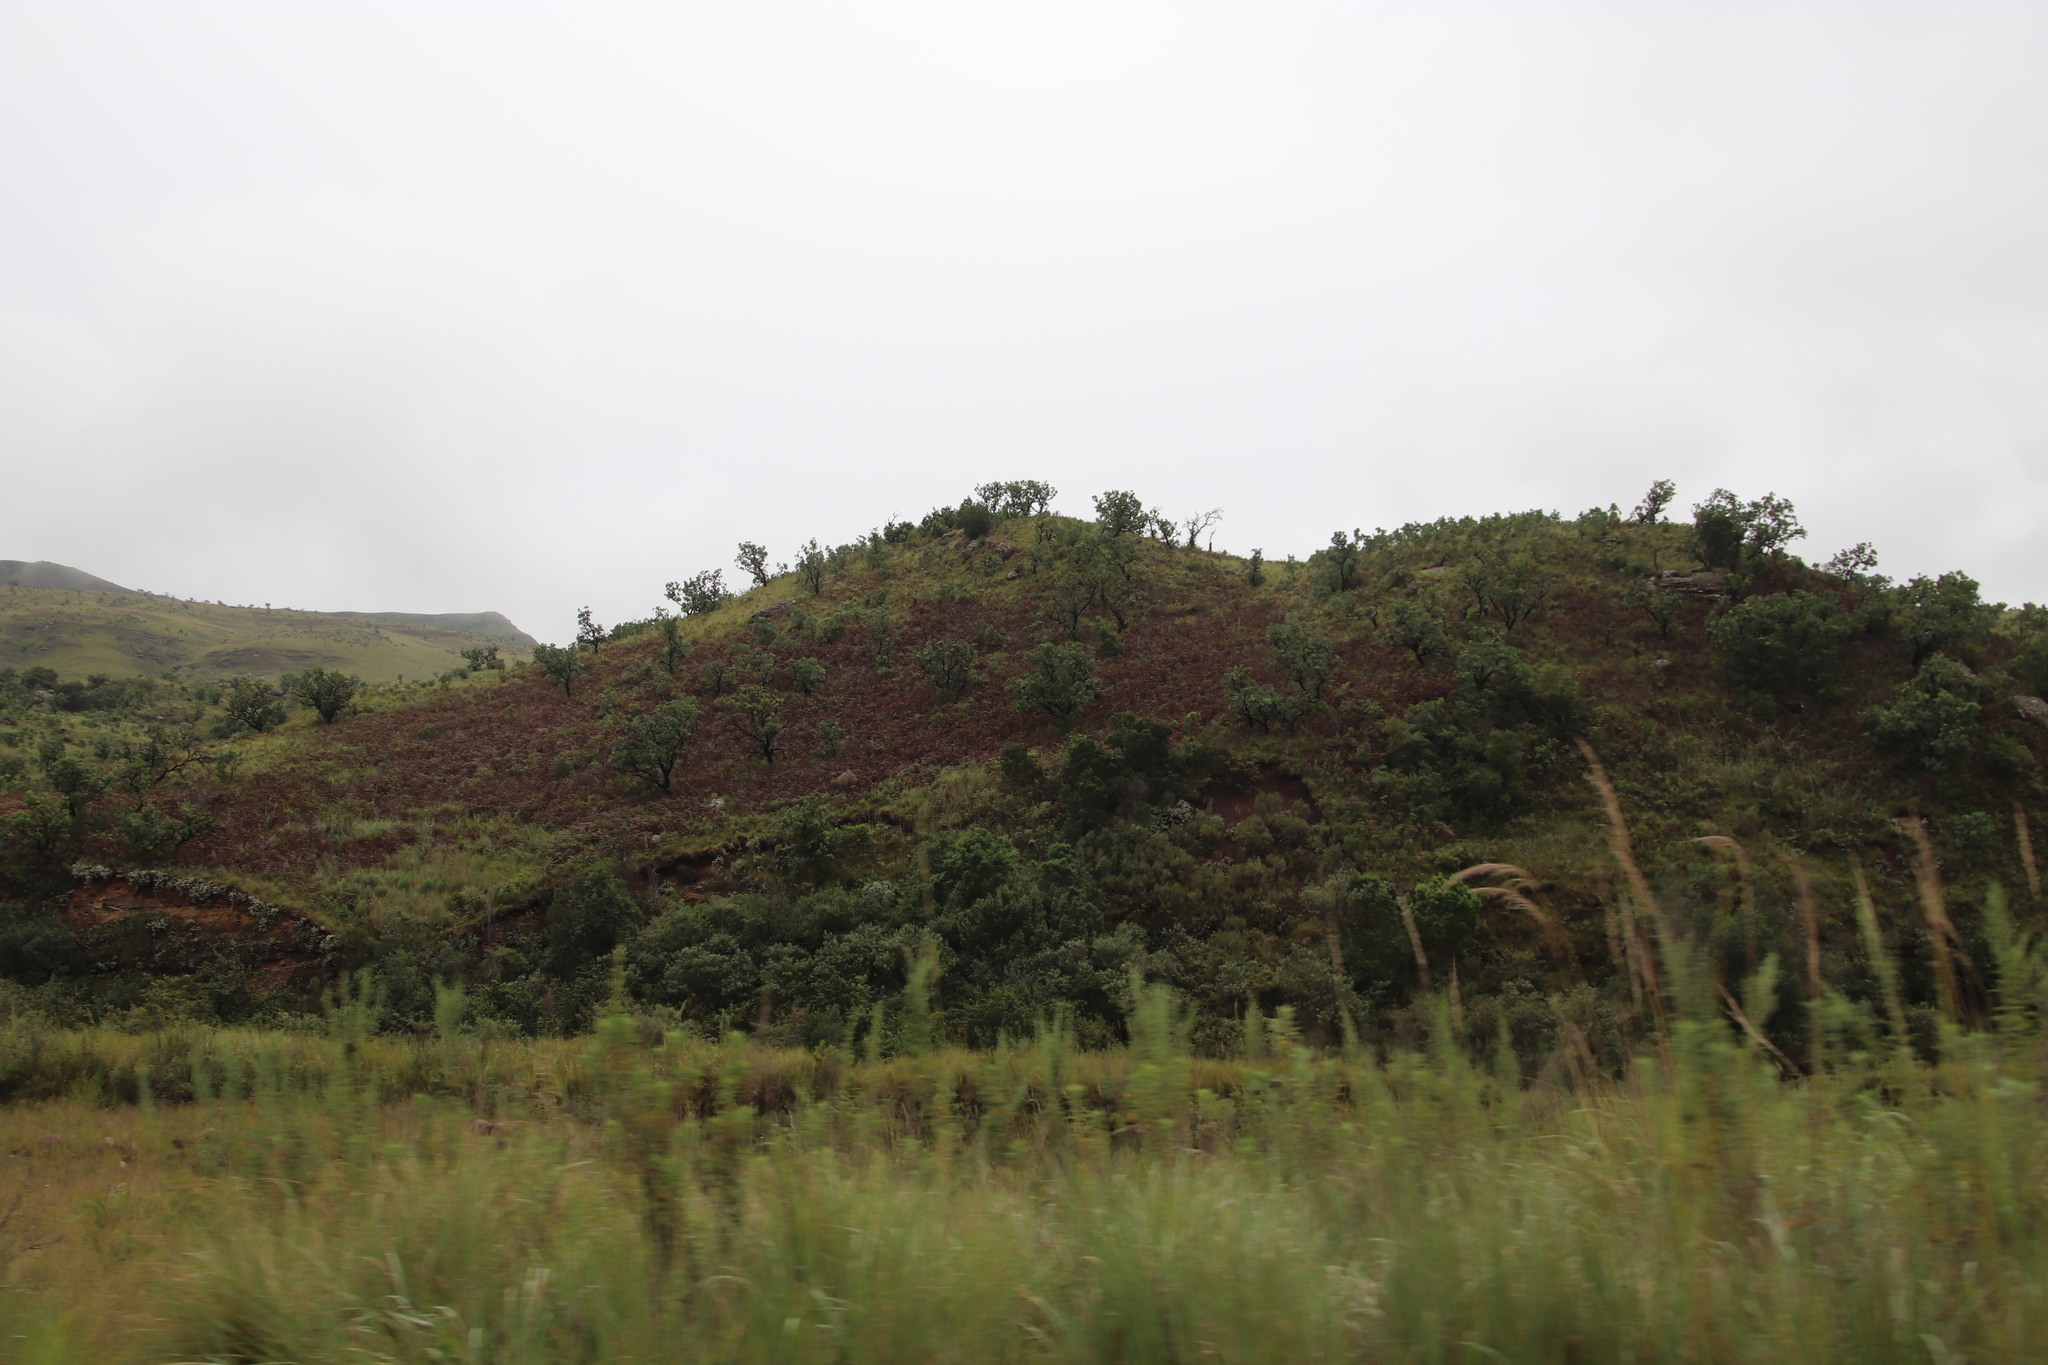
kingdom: Plantae
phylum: Tracheophyta
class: Magnoliopsida
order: Proteales
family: Proteaceae
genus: Protea
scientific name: Protea caffra
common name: Common sugarbush
